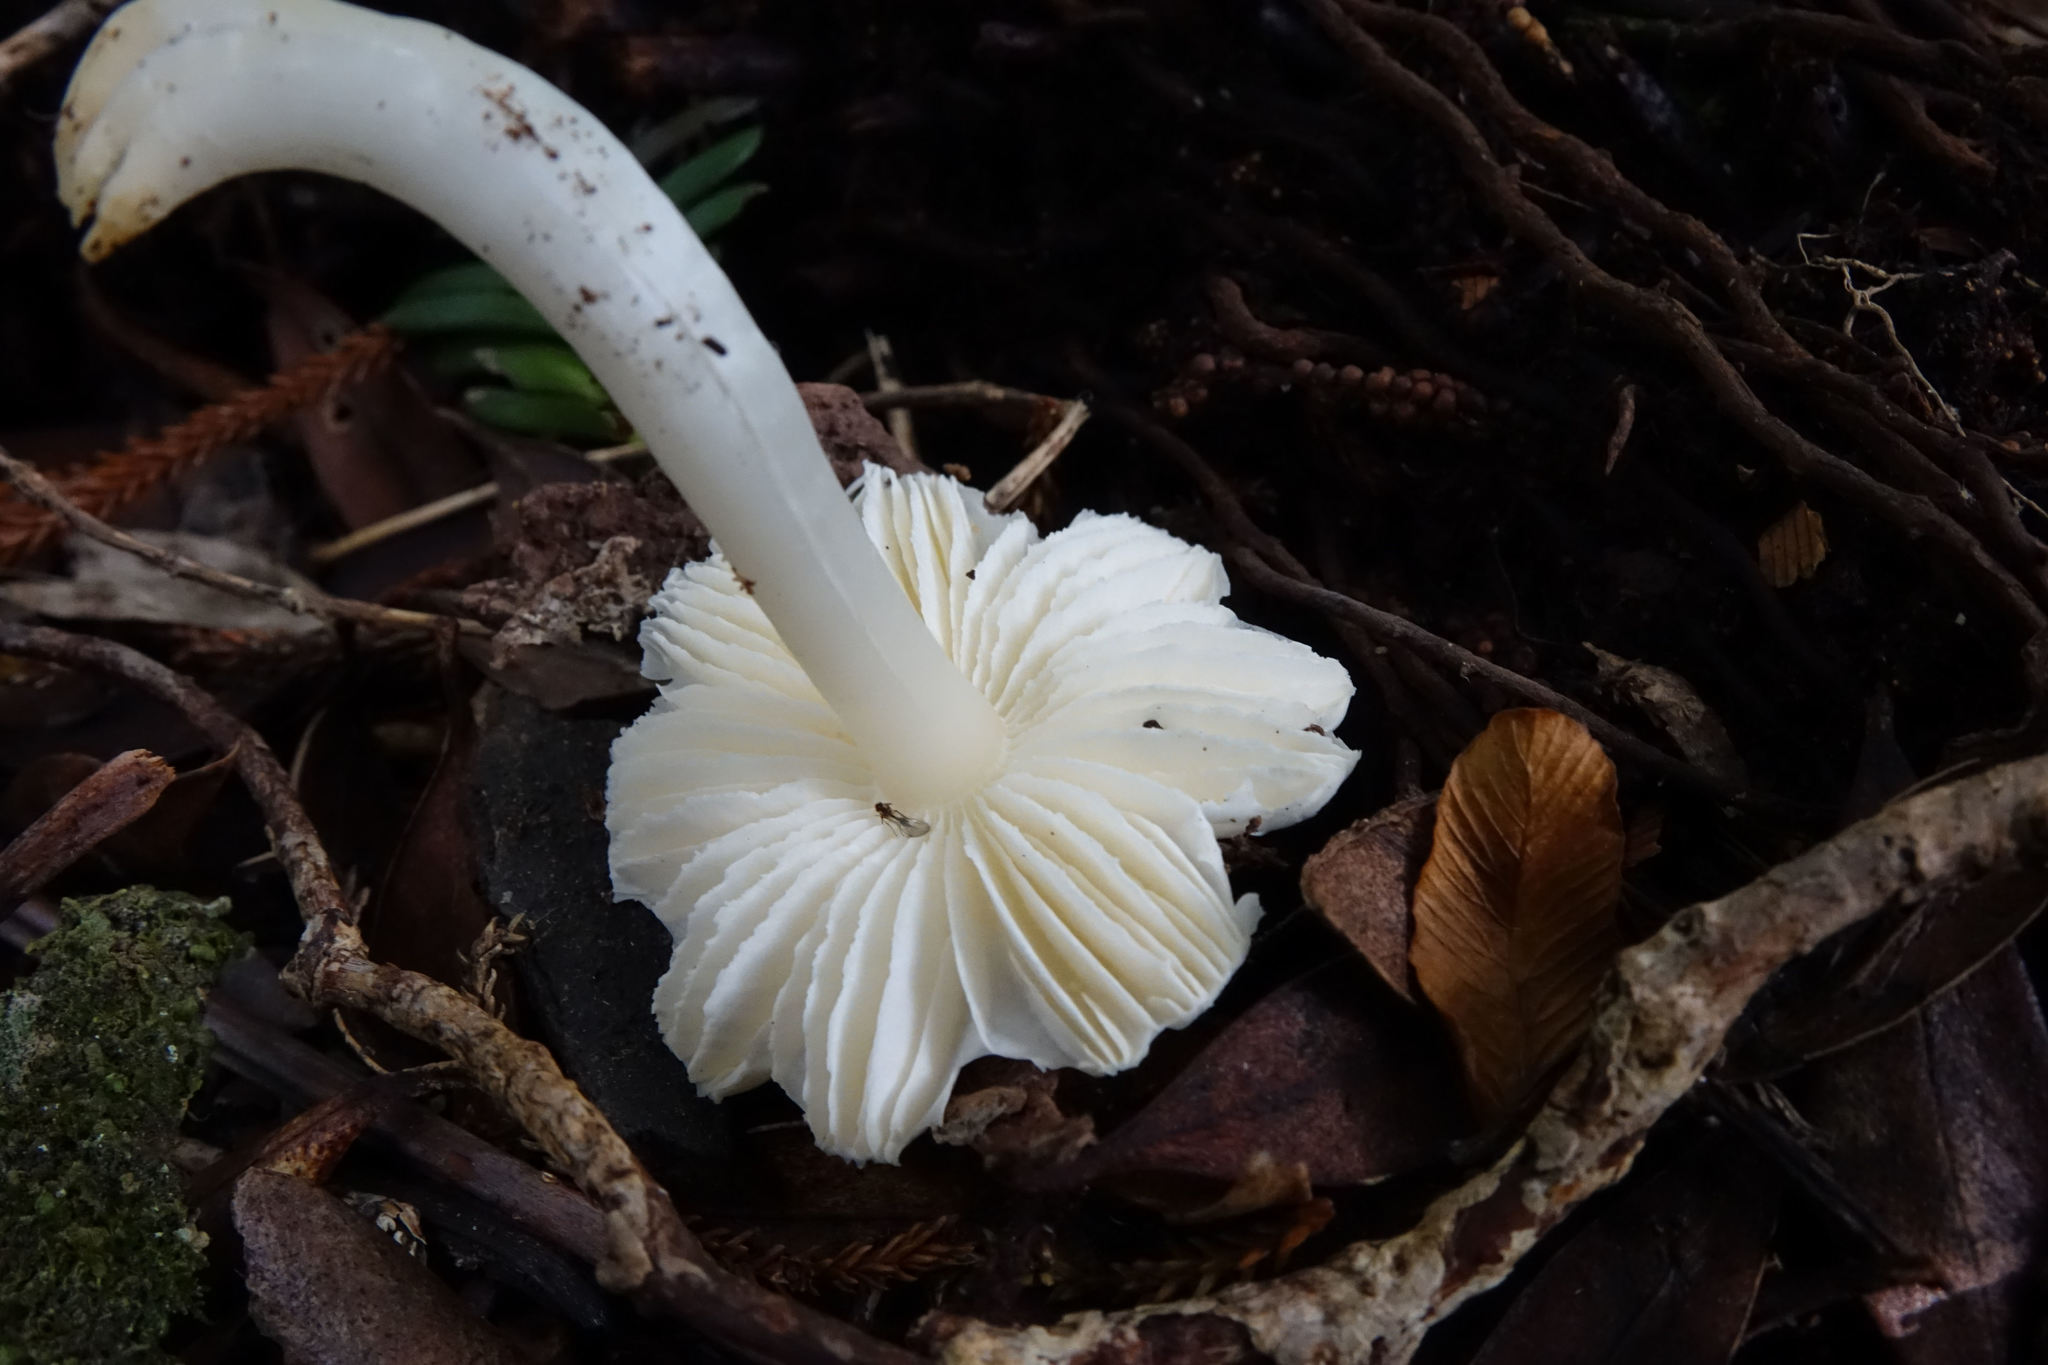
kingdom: Fungi
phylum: Basidiomycota
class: Agaricomycetes
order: Agaricales
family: Hygrophoraceae
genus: Humidicutis
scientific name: Humidicutis mavis
